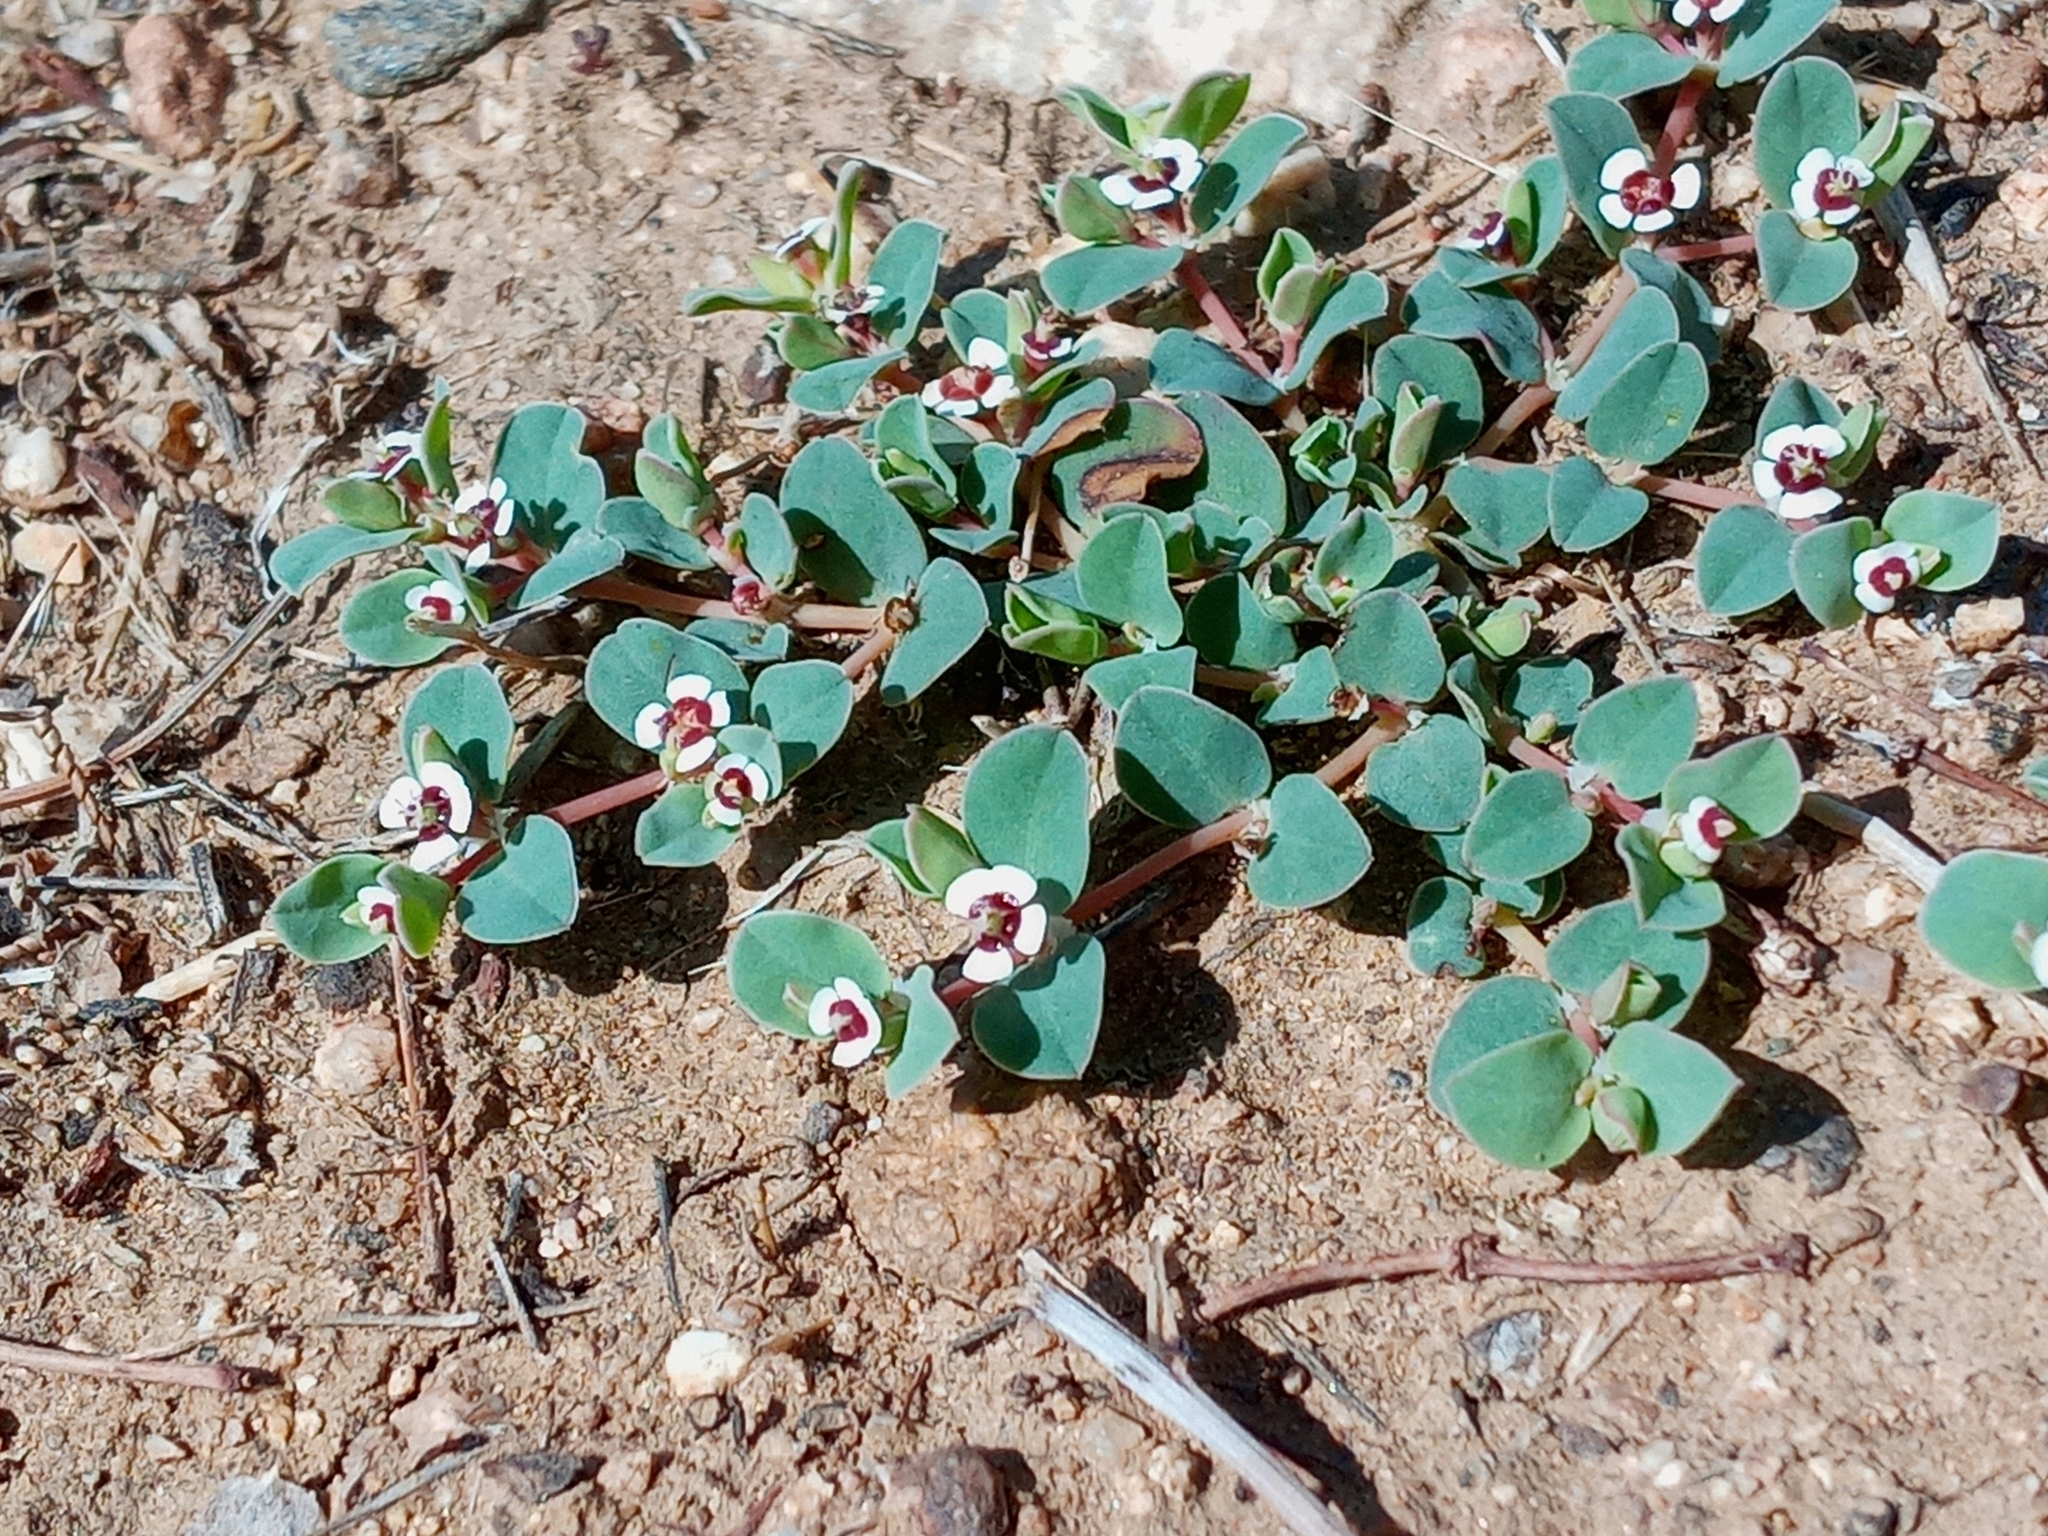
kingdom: Plantae
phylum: Tracheophyta
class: Magnoliopsida
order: Malpighiales
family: Euphorbiaceae
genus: Euphorbia
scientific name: Euphorbia albomarginata
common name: Whitemargin sandmat
